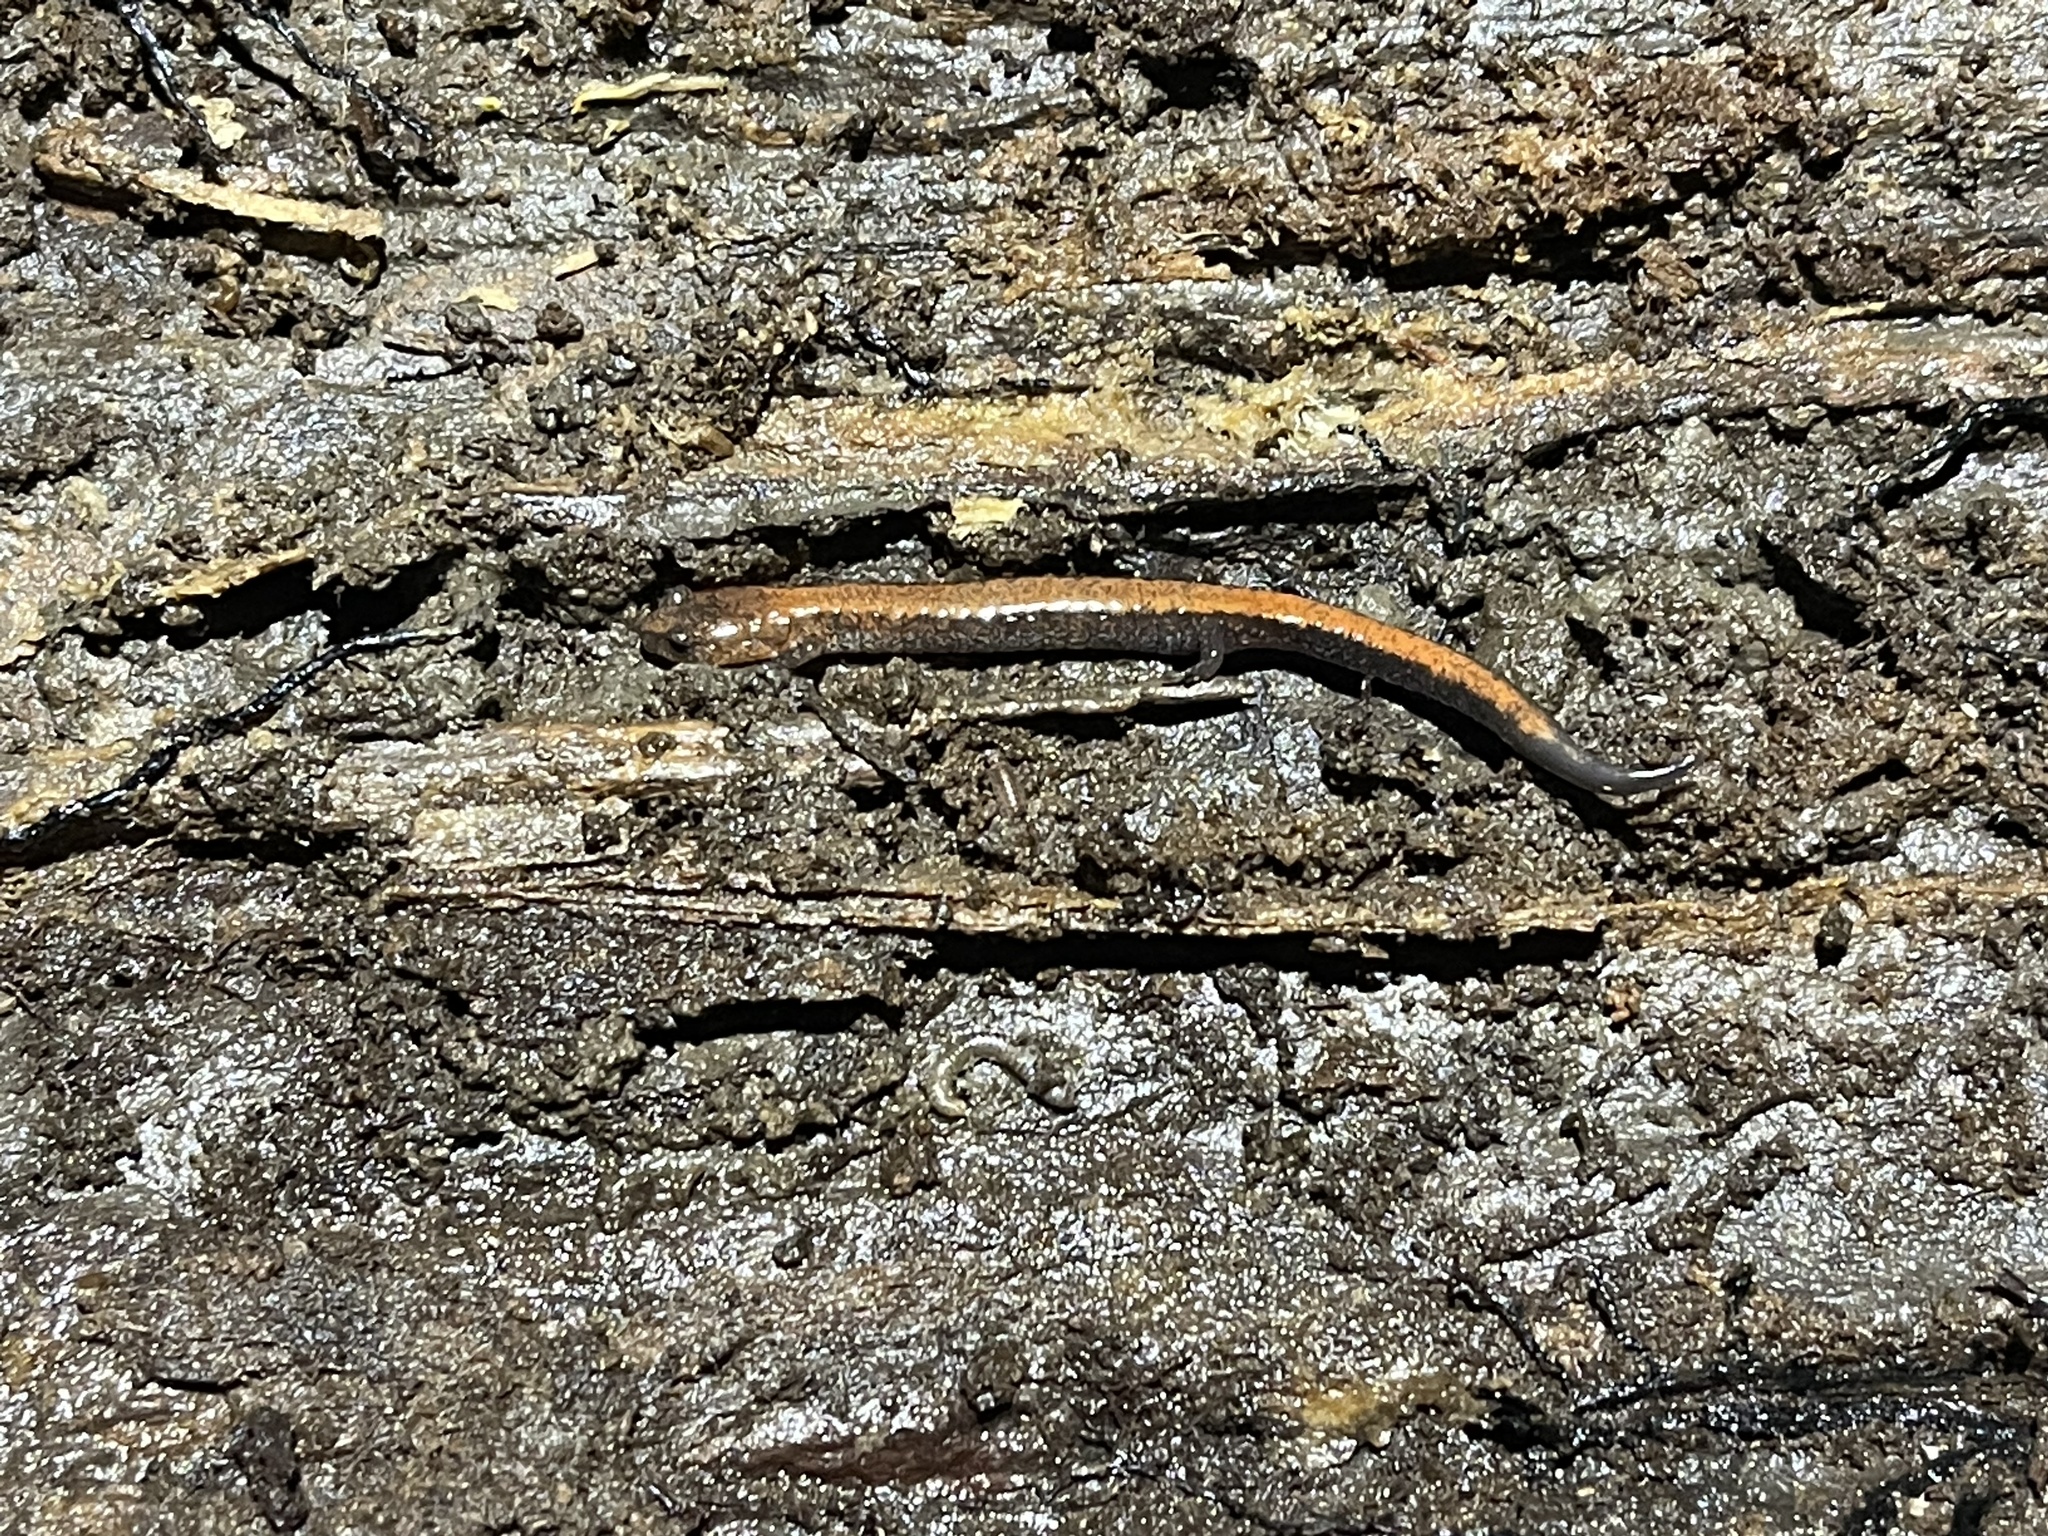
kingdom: Animalia
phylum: Chordata
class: Amphibia
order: Caudata
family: Plethodontidae
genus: Plethodon
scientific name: Plethodon cinereus
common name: Redback salamander
